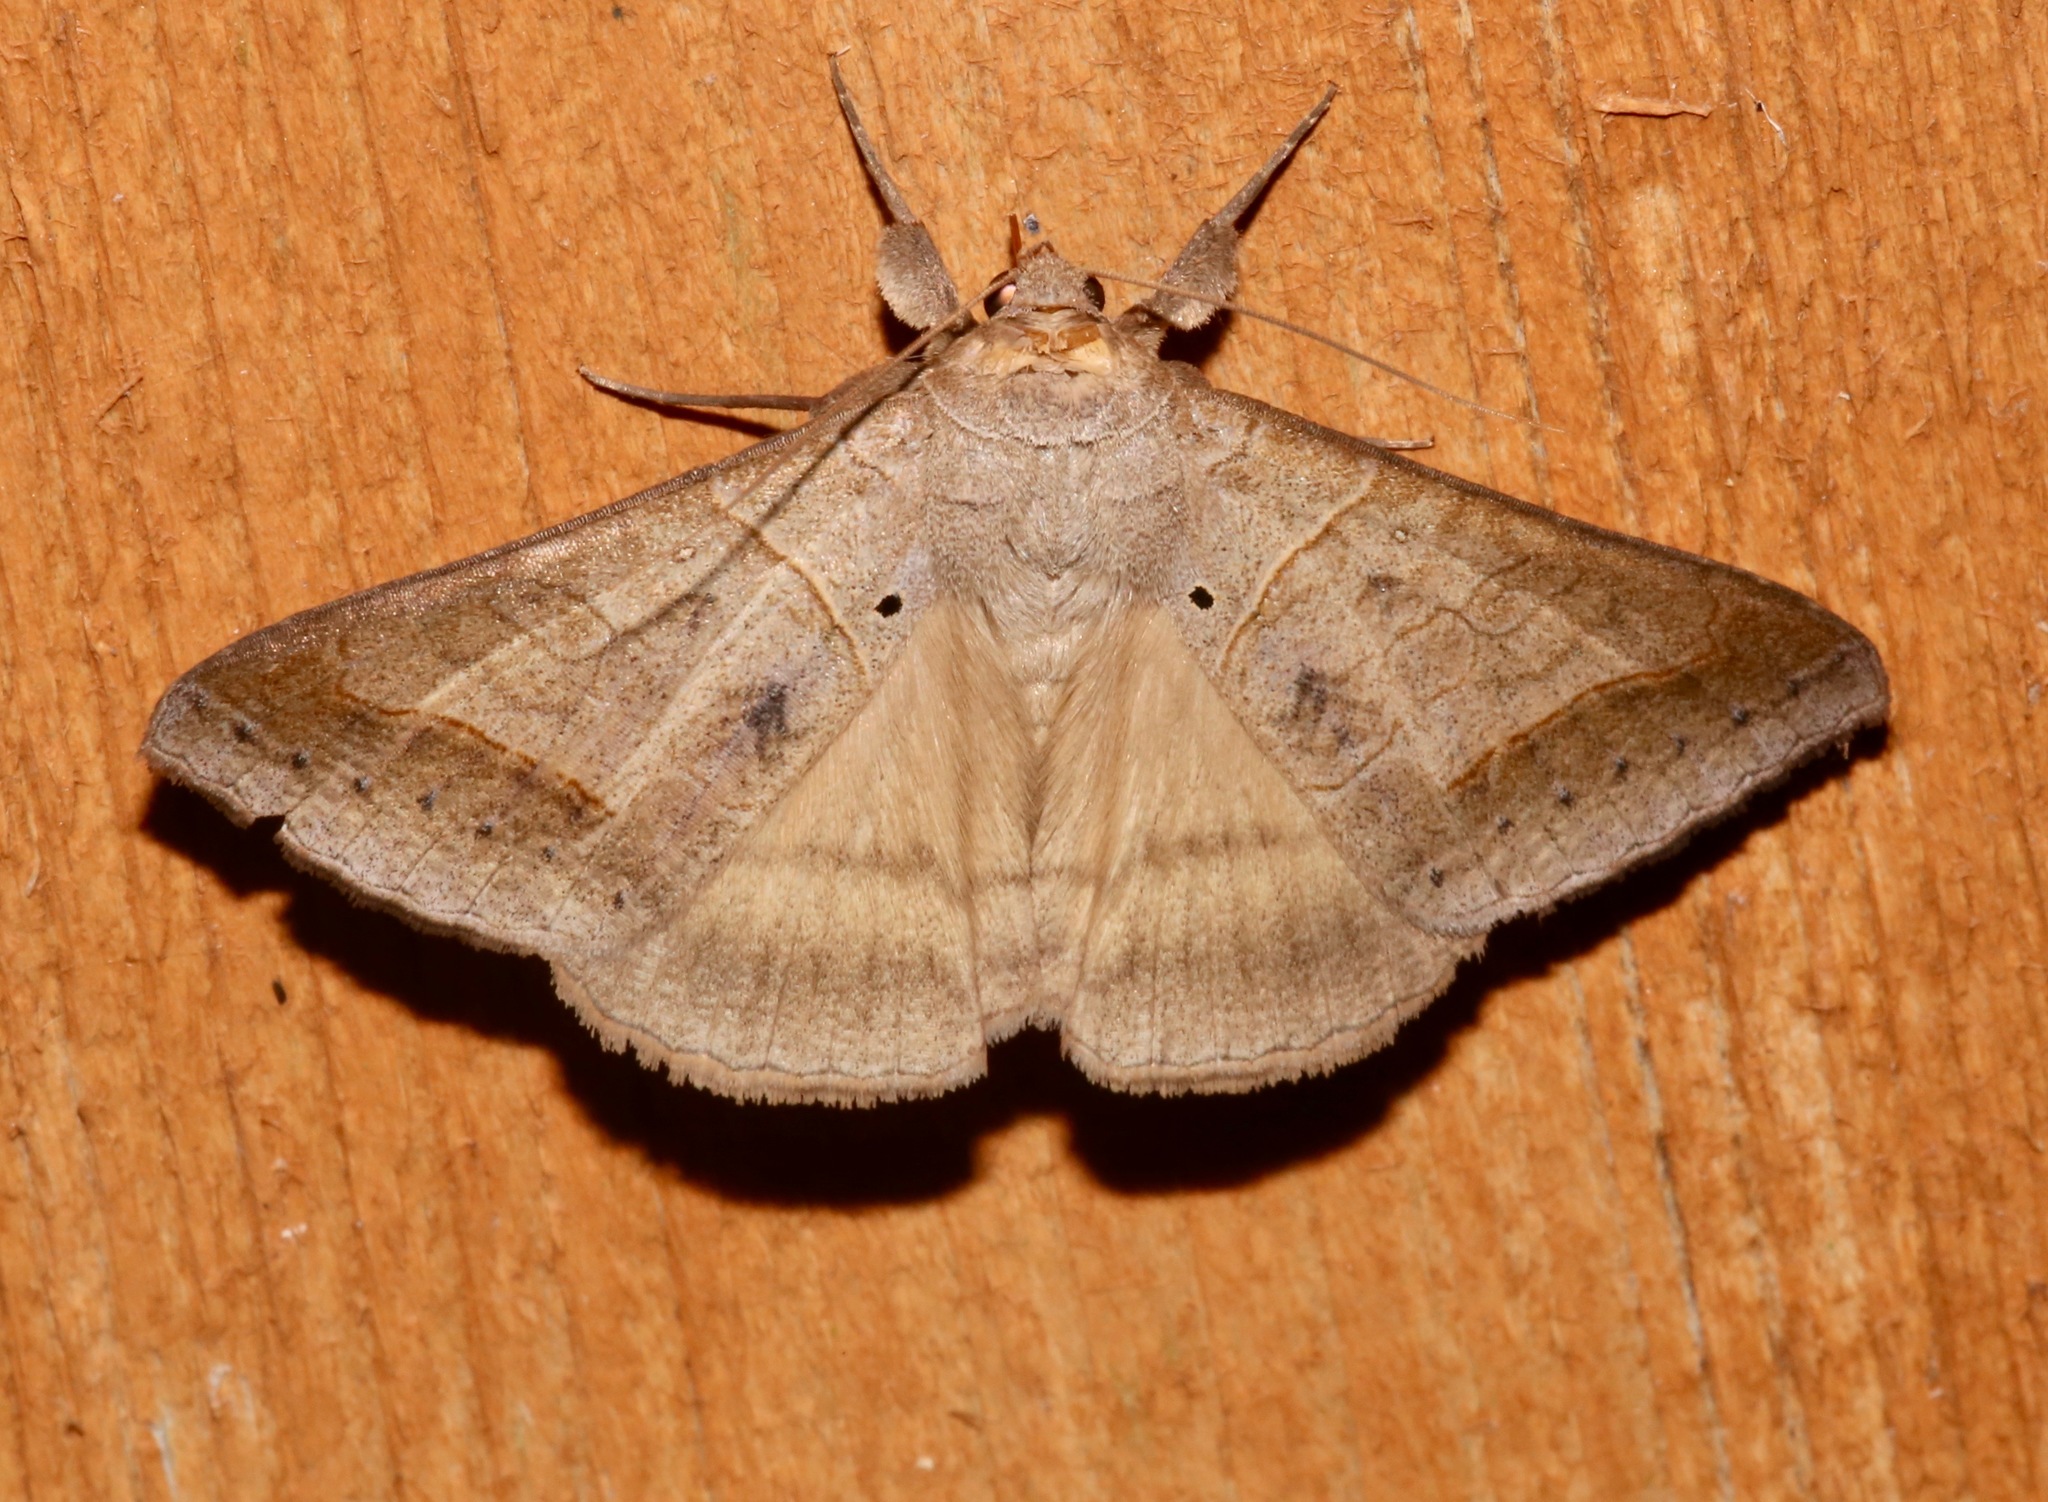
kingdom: Animalia
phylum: Arthropoda
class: Insecta
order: Lepidoptera
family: Erebidae
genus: Mocis
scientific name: Mocis marcida
